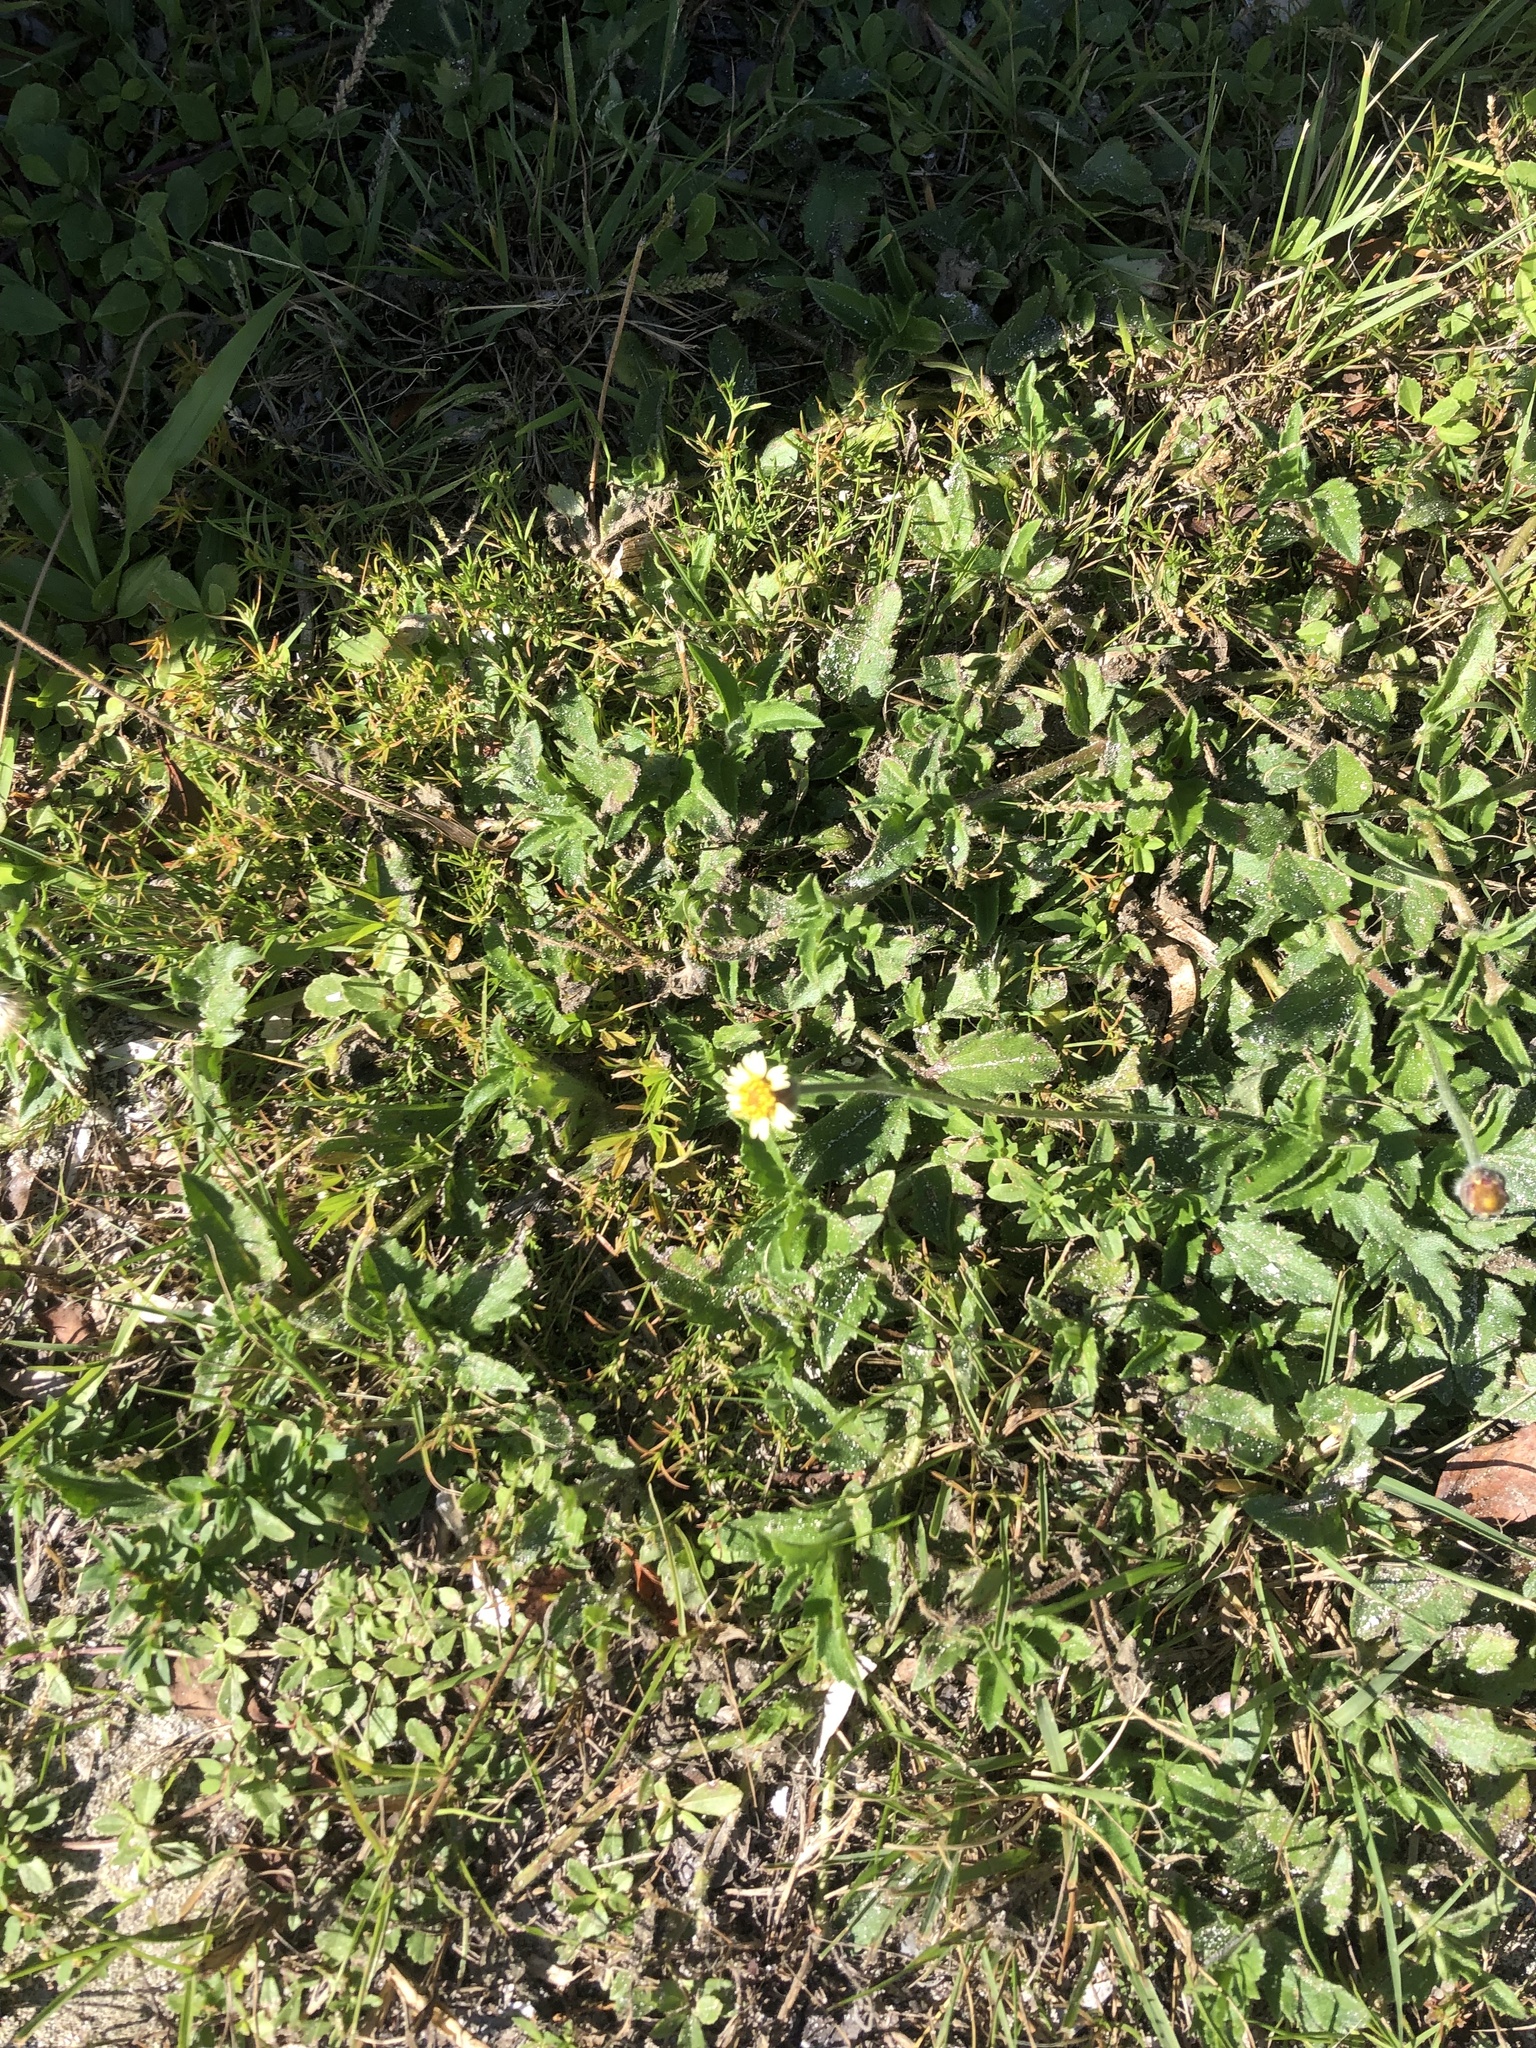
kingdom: Plantae
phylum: Tracheophyta
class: Magnoliopsida
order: Asterales
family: Asteraceae
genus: Tridax
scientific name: Tridax procumbens
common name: Coatbuttons
